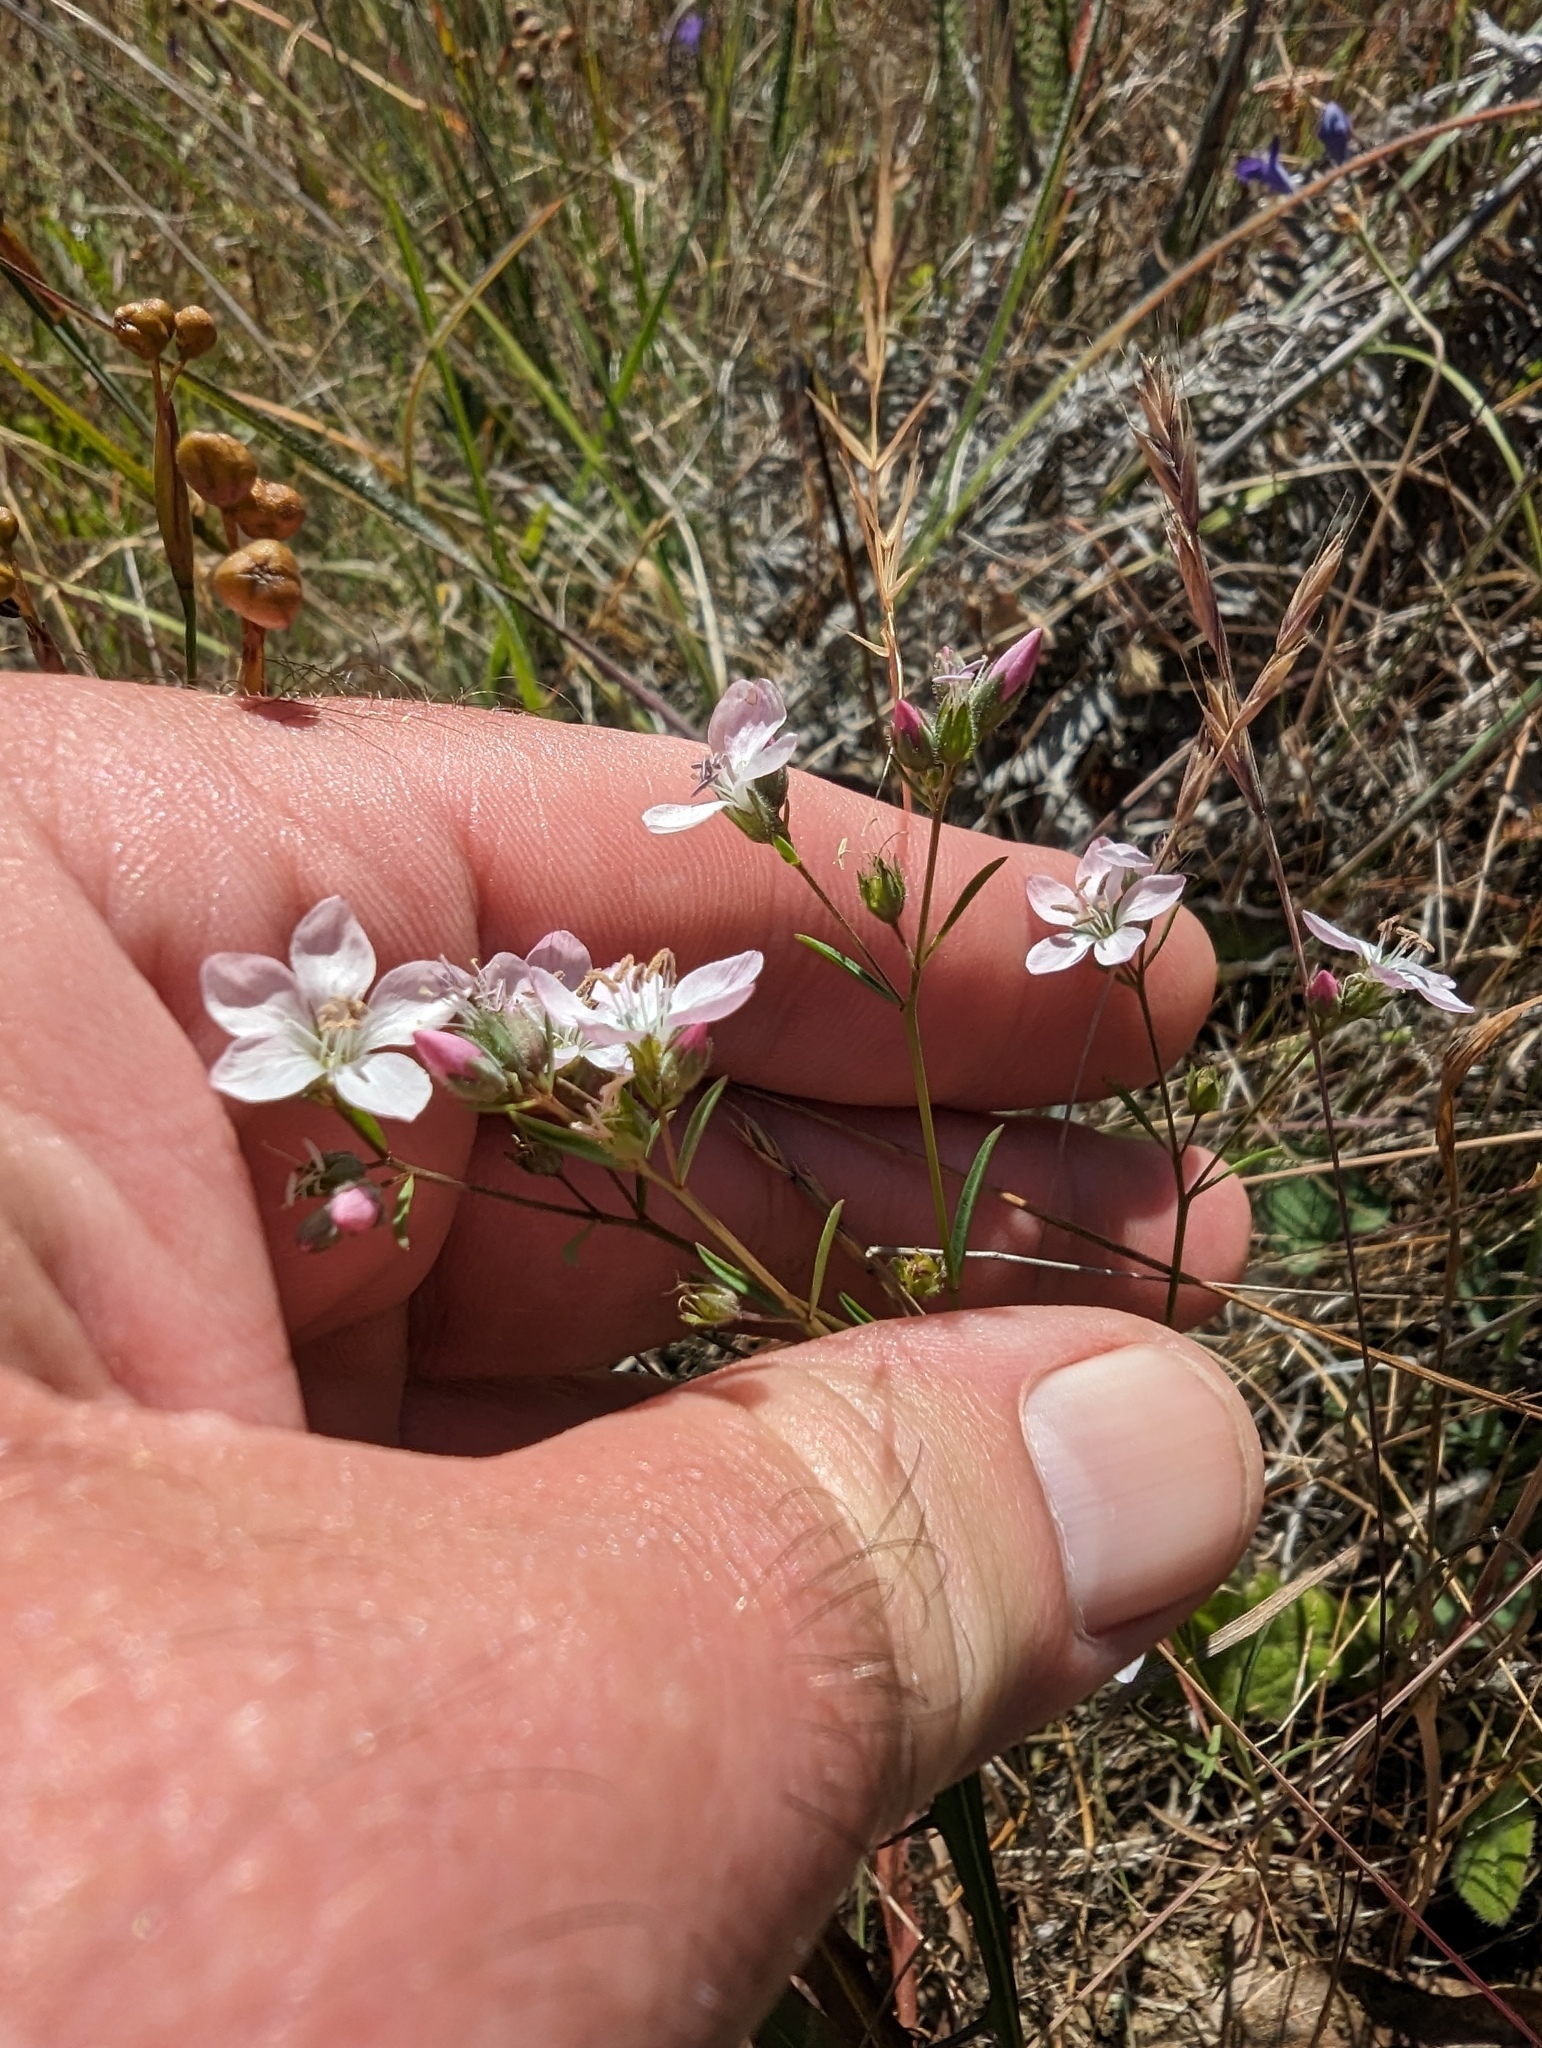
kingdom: Plantae
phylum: Tracheophyta
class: Magnoliopsida
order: Malpighiales
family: Linaceae
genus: Hesperolinon
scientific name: Hesperolinon congestum
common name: Marin dwarf-flax
